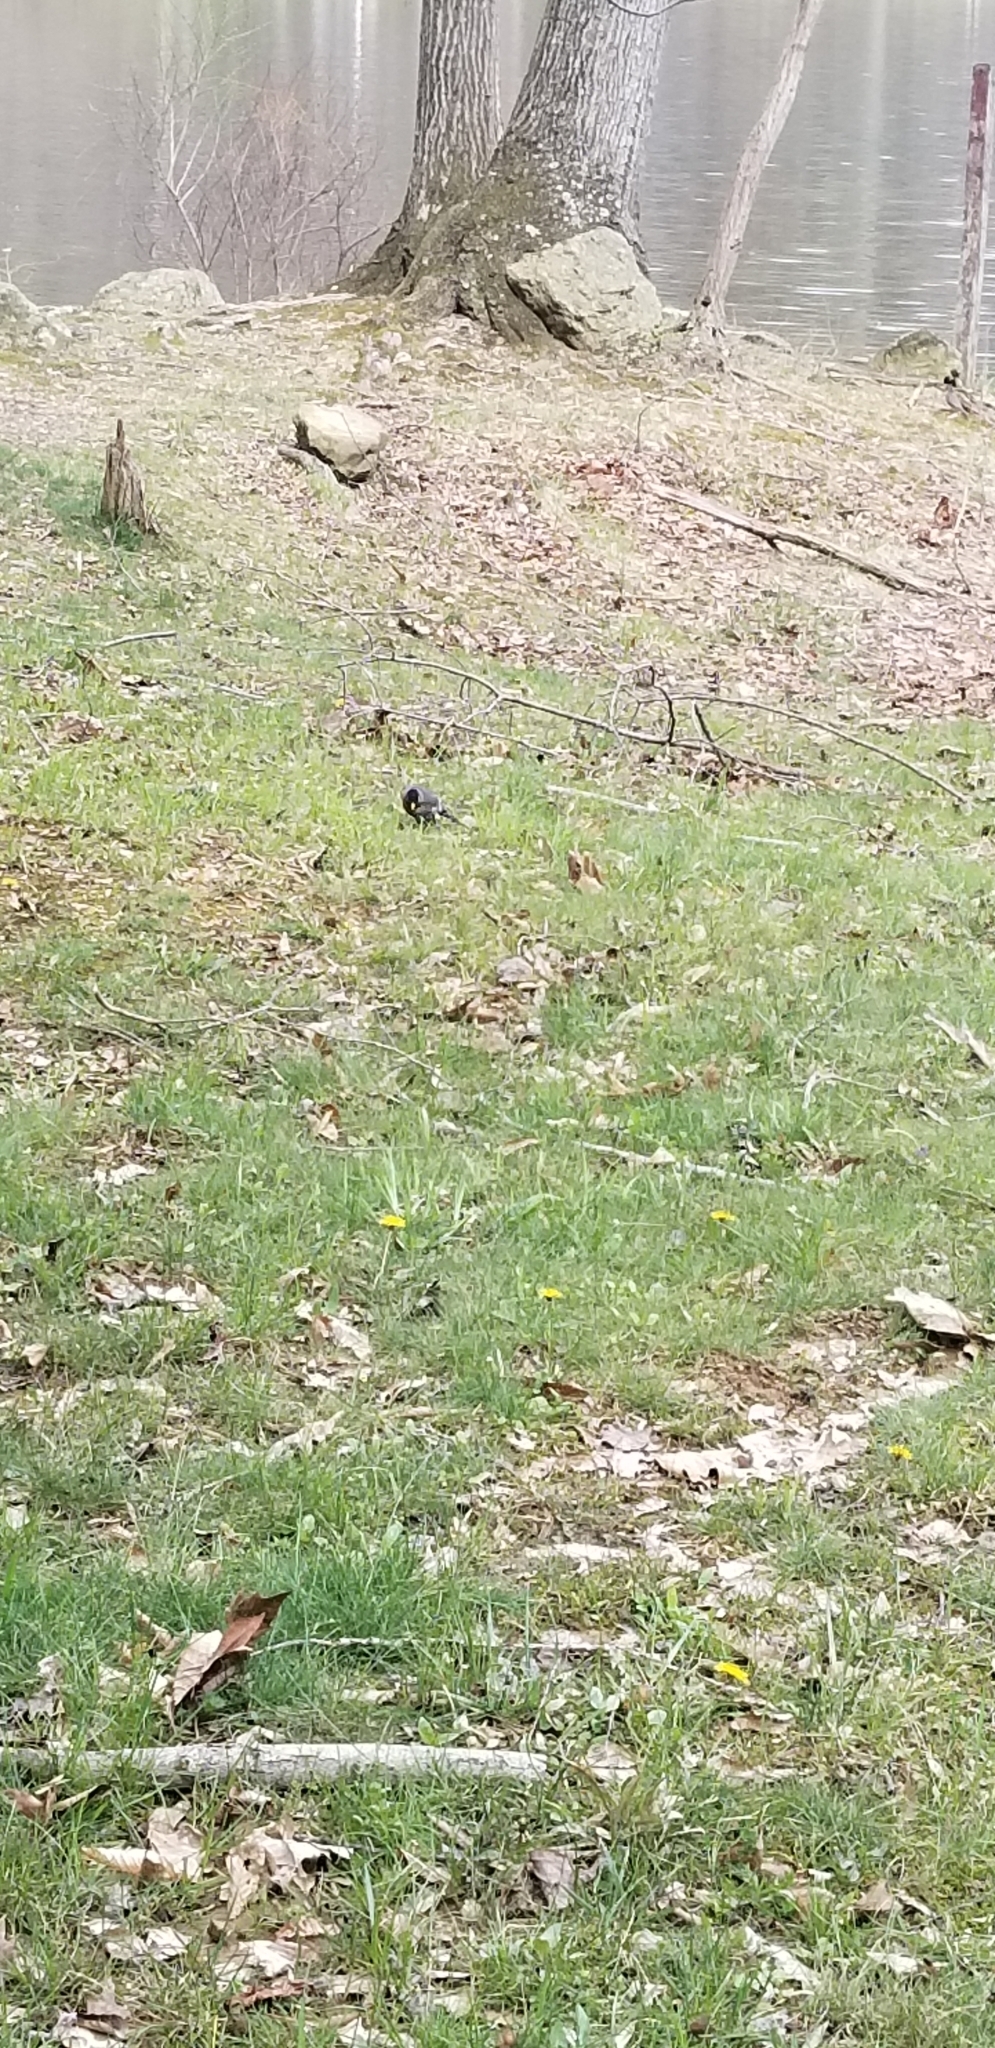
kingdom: Animalia
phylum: Chordata
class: Aves
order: Passeriformes
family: Turdidae
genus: Turdus
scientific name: Turdus migratorius
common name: American robin
